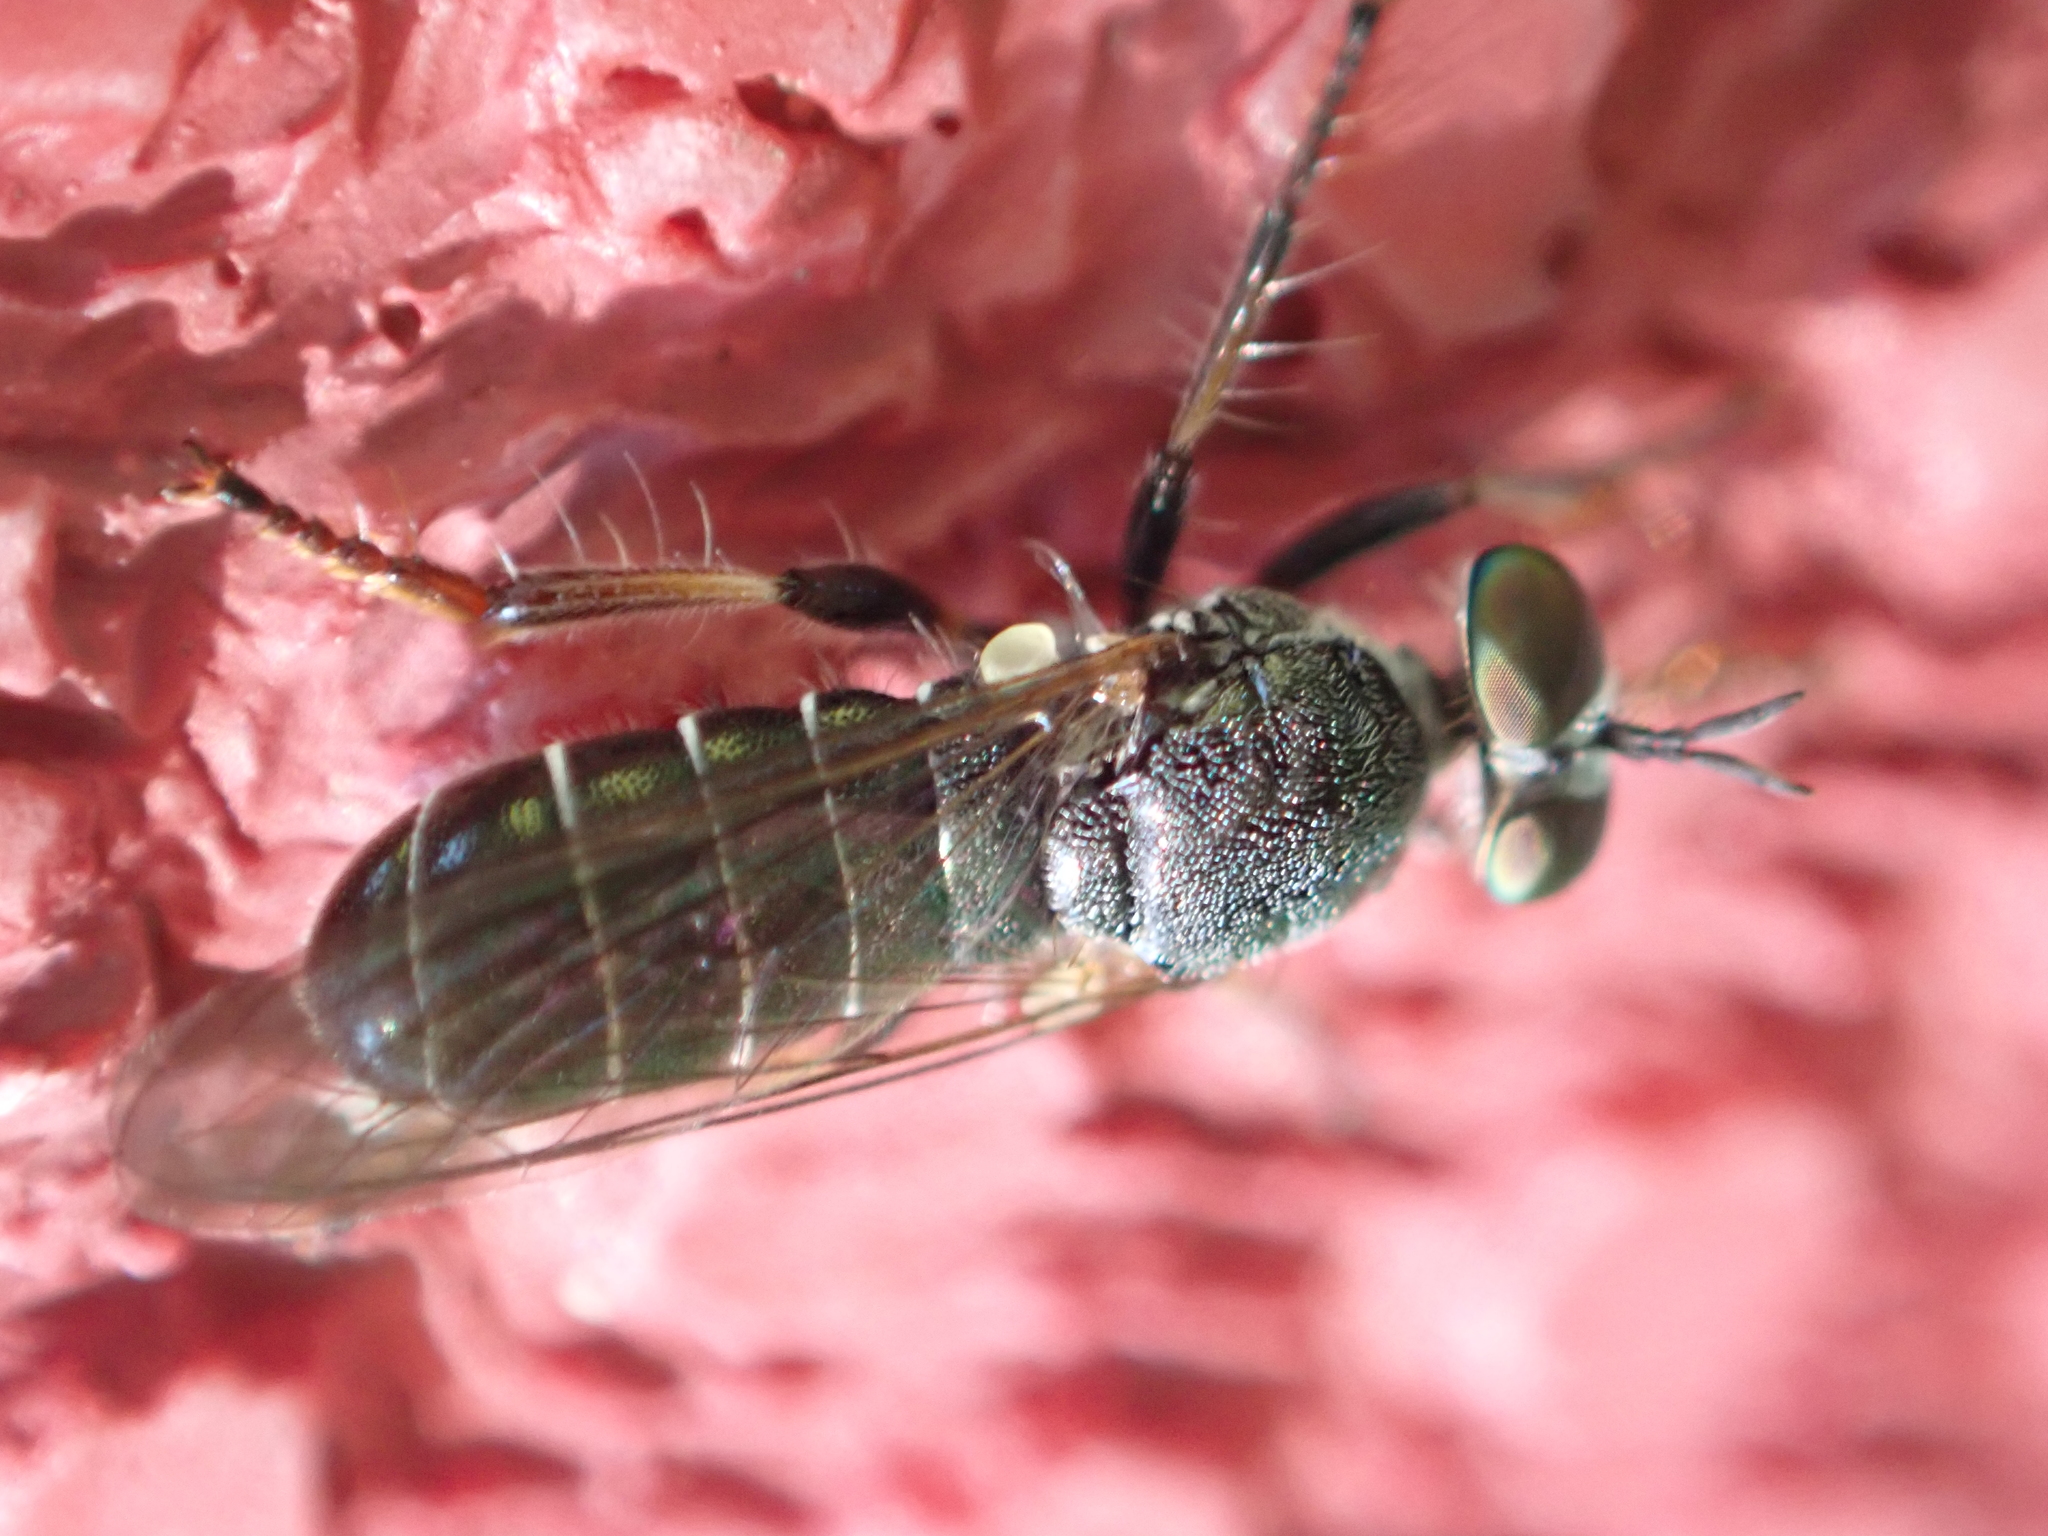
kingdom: Animalia
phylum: Arthropoda
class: Insecta
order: Diptera
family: Asilidae
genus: Atomosia
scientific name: Atomosia puella
